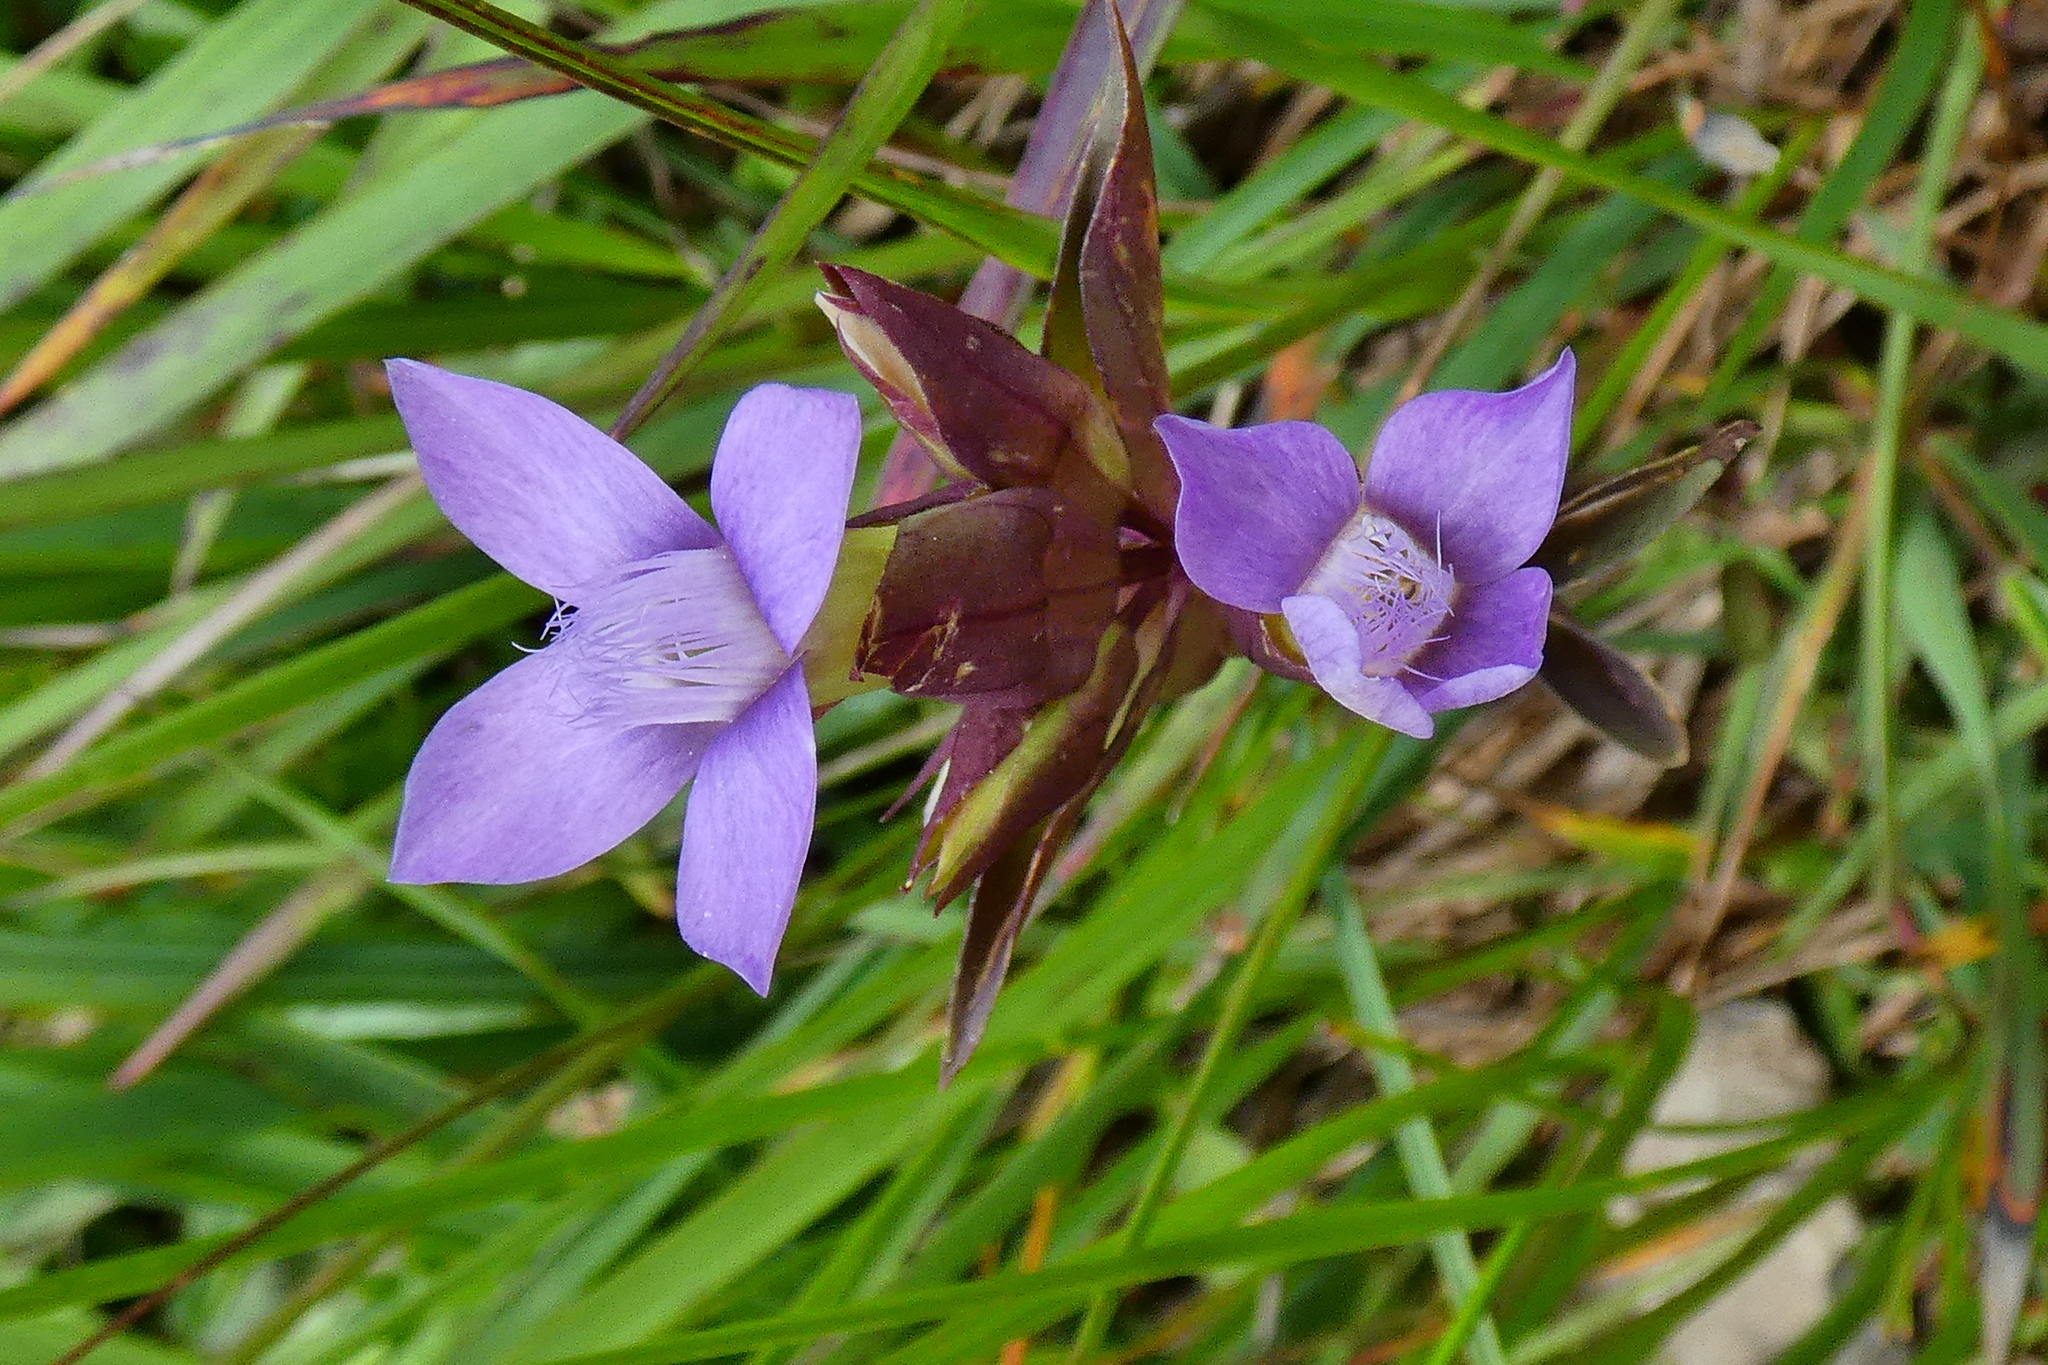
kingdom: Plantae
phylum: Tracheophyta
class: Magnoliopsida
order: Gentianales
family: Gentianaceae
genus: Gentianella
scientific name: Gentianella campestris
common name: Field gentian
